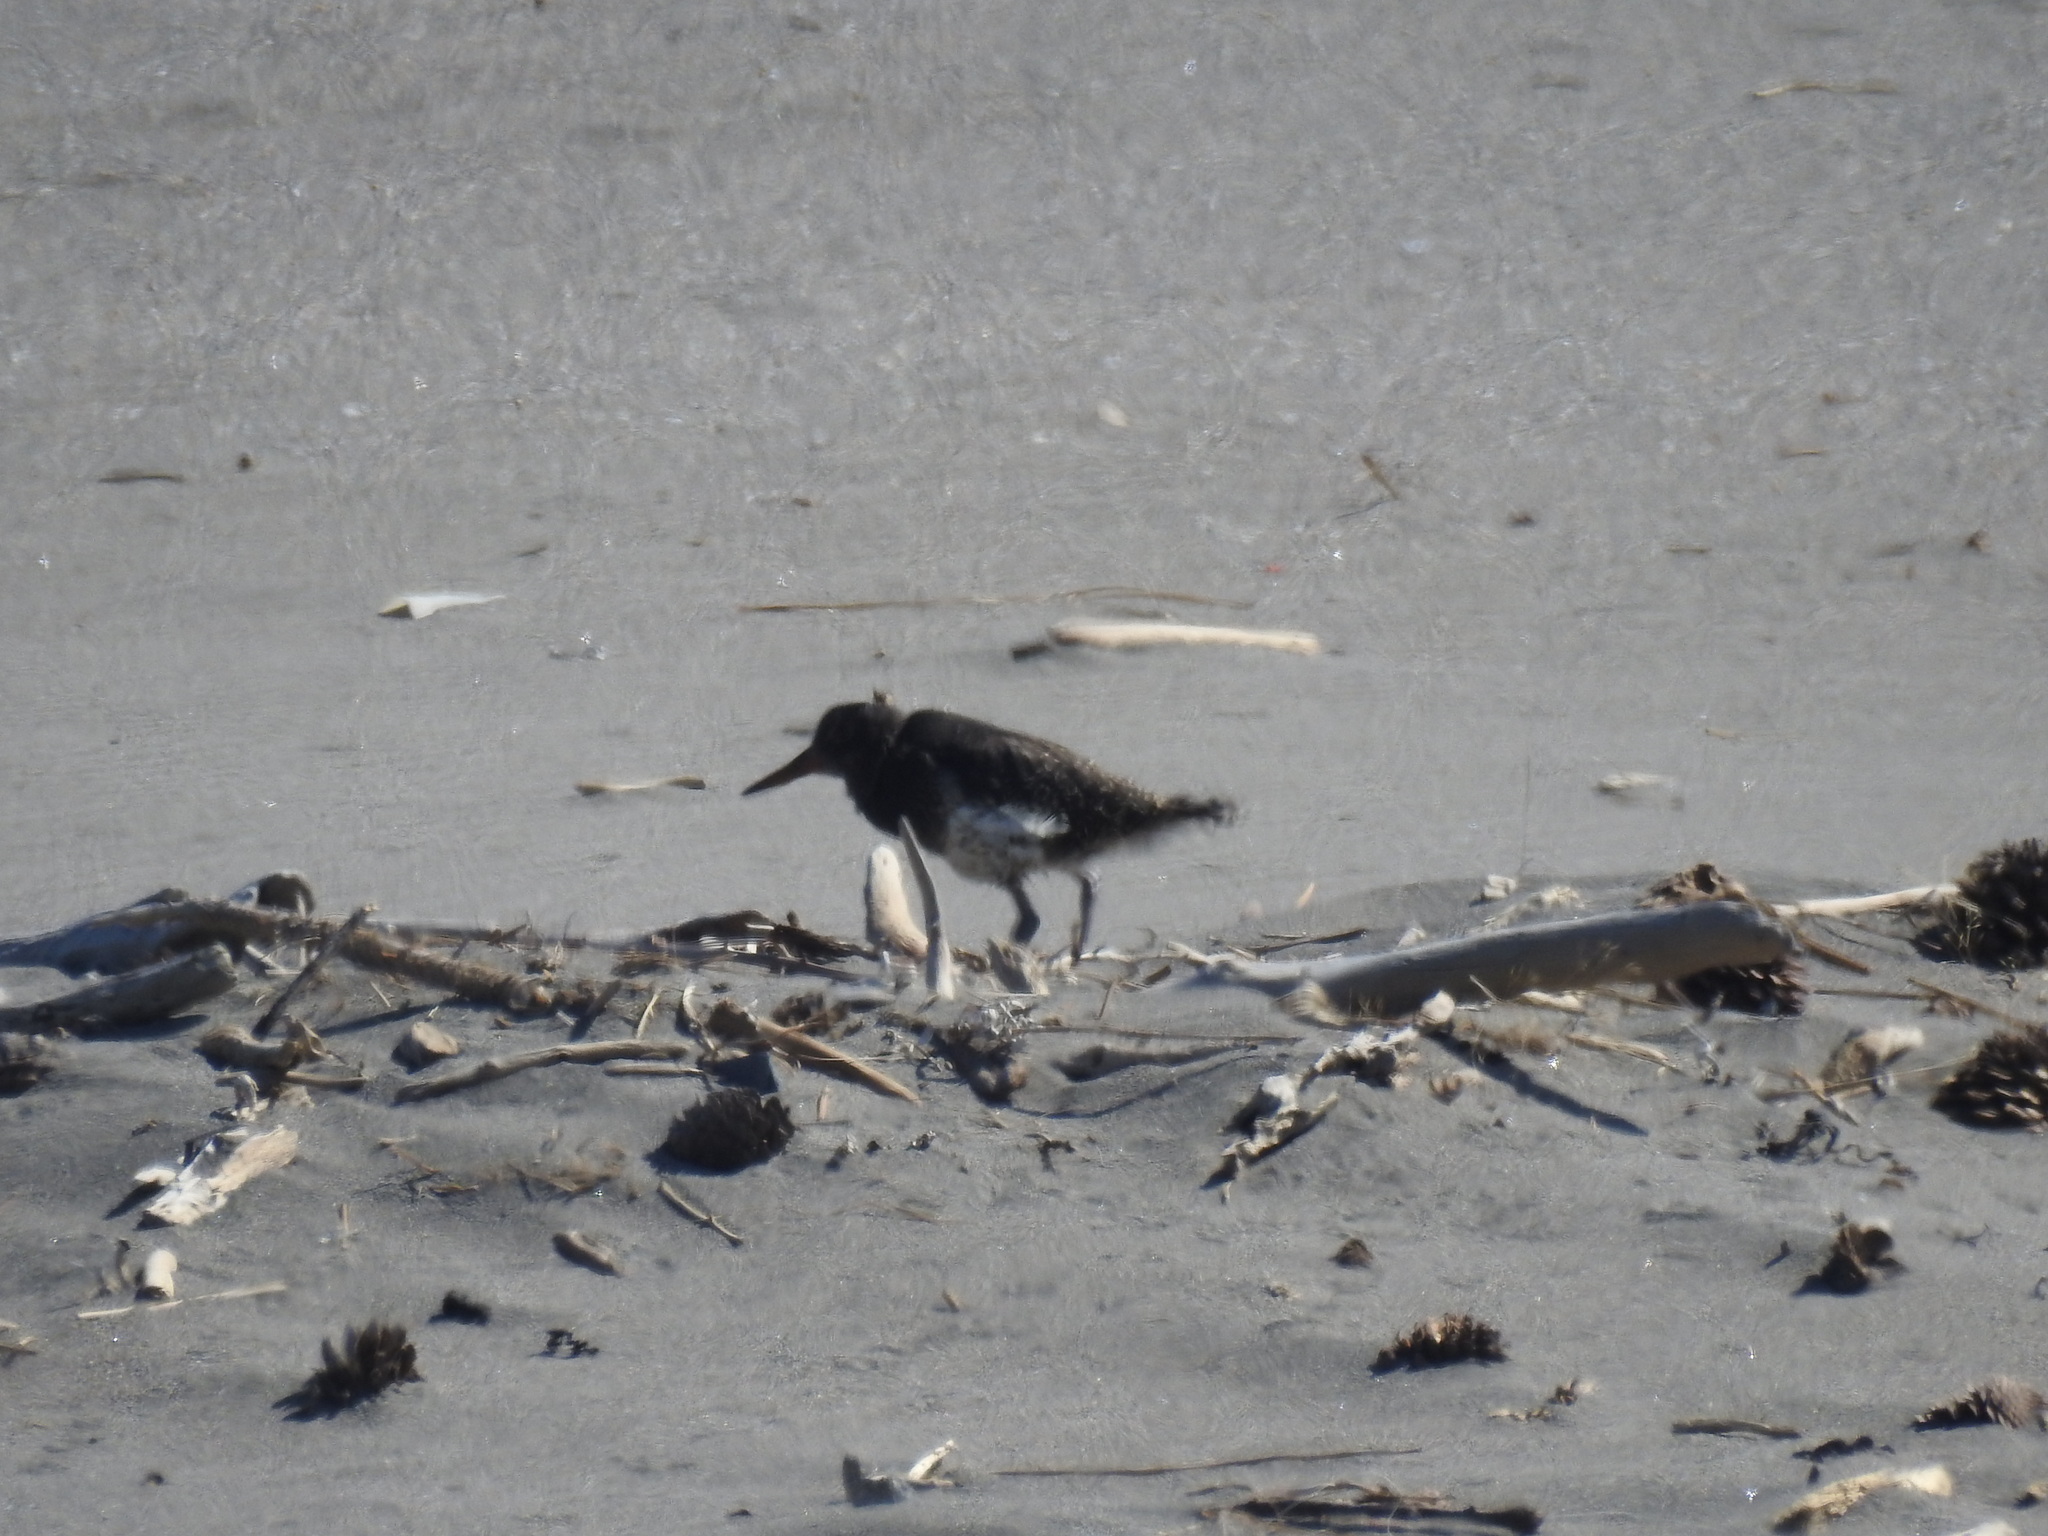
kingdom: Animalia
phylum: Chordata
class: Aves
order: Charadriiformes
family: Haematopodidae
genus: Haematopus
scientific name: Haematopus unicolor
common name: Variable oystercatcher
